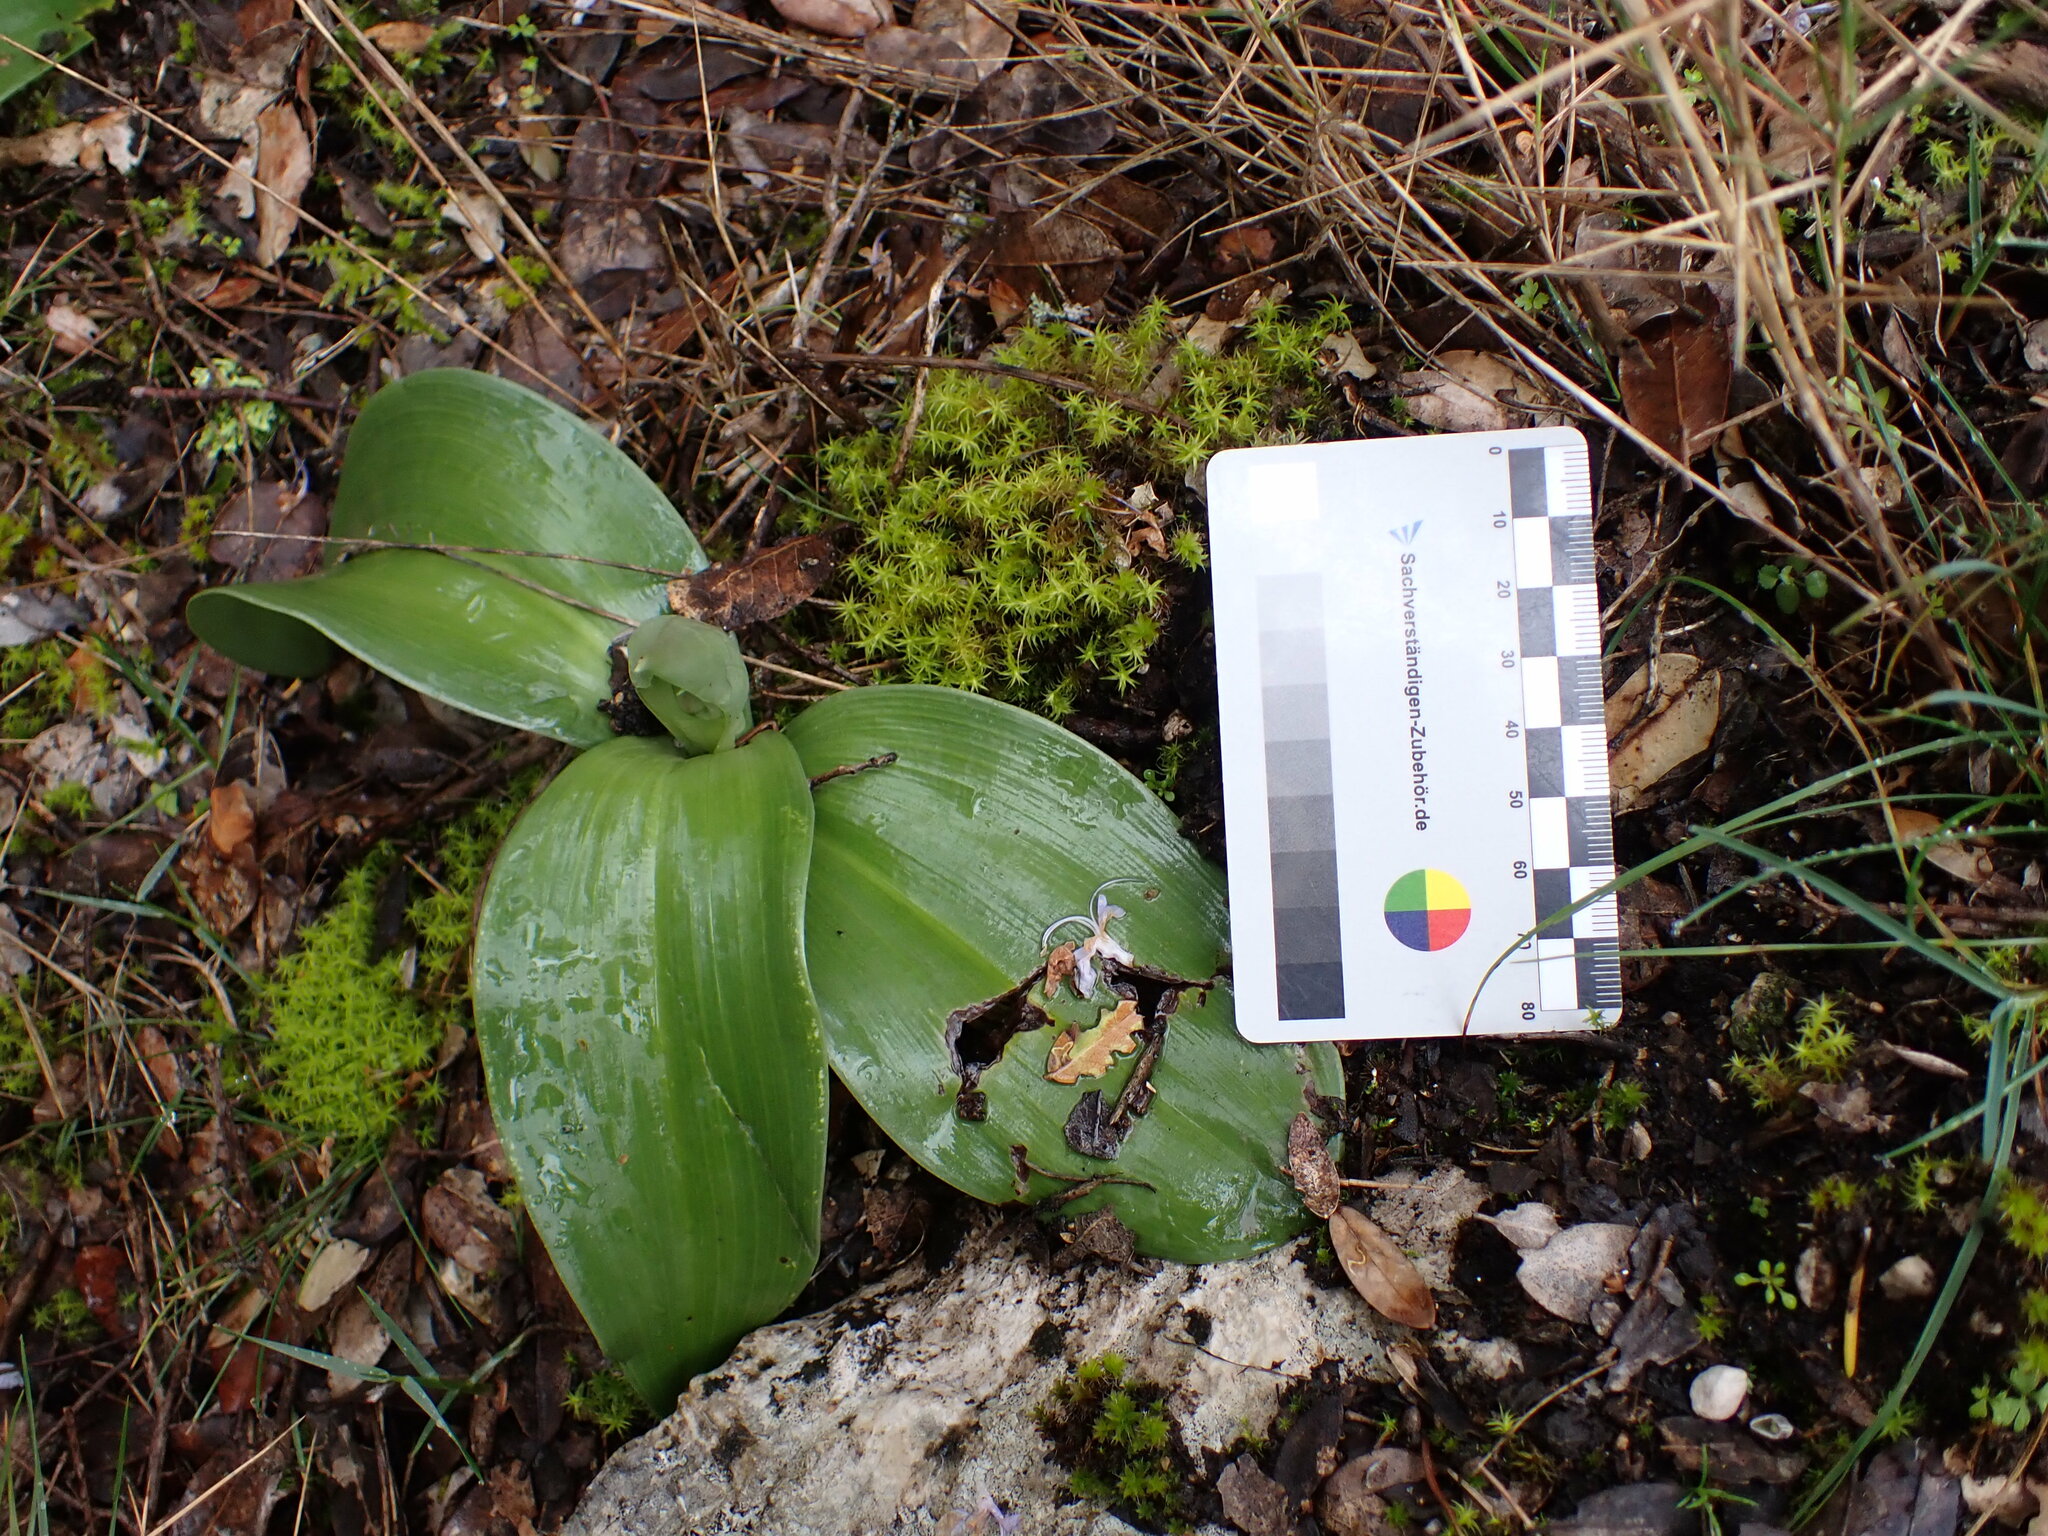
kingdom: Plantae
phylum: Tracheophyta
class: Liliopsida
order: Asparagales
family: Orchidaceae
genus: Himantoglossum
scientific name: Himantoglossum robertianum
